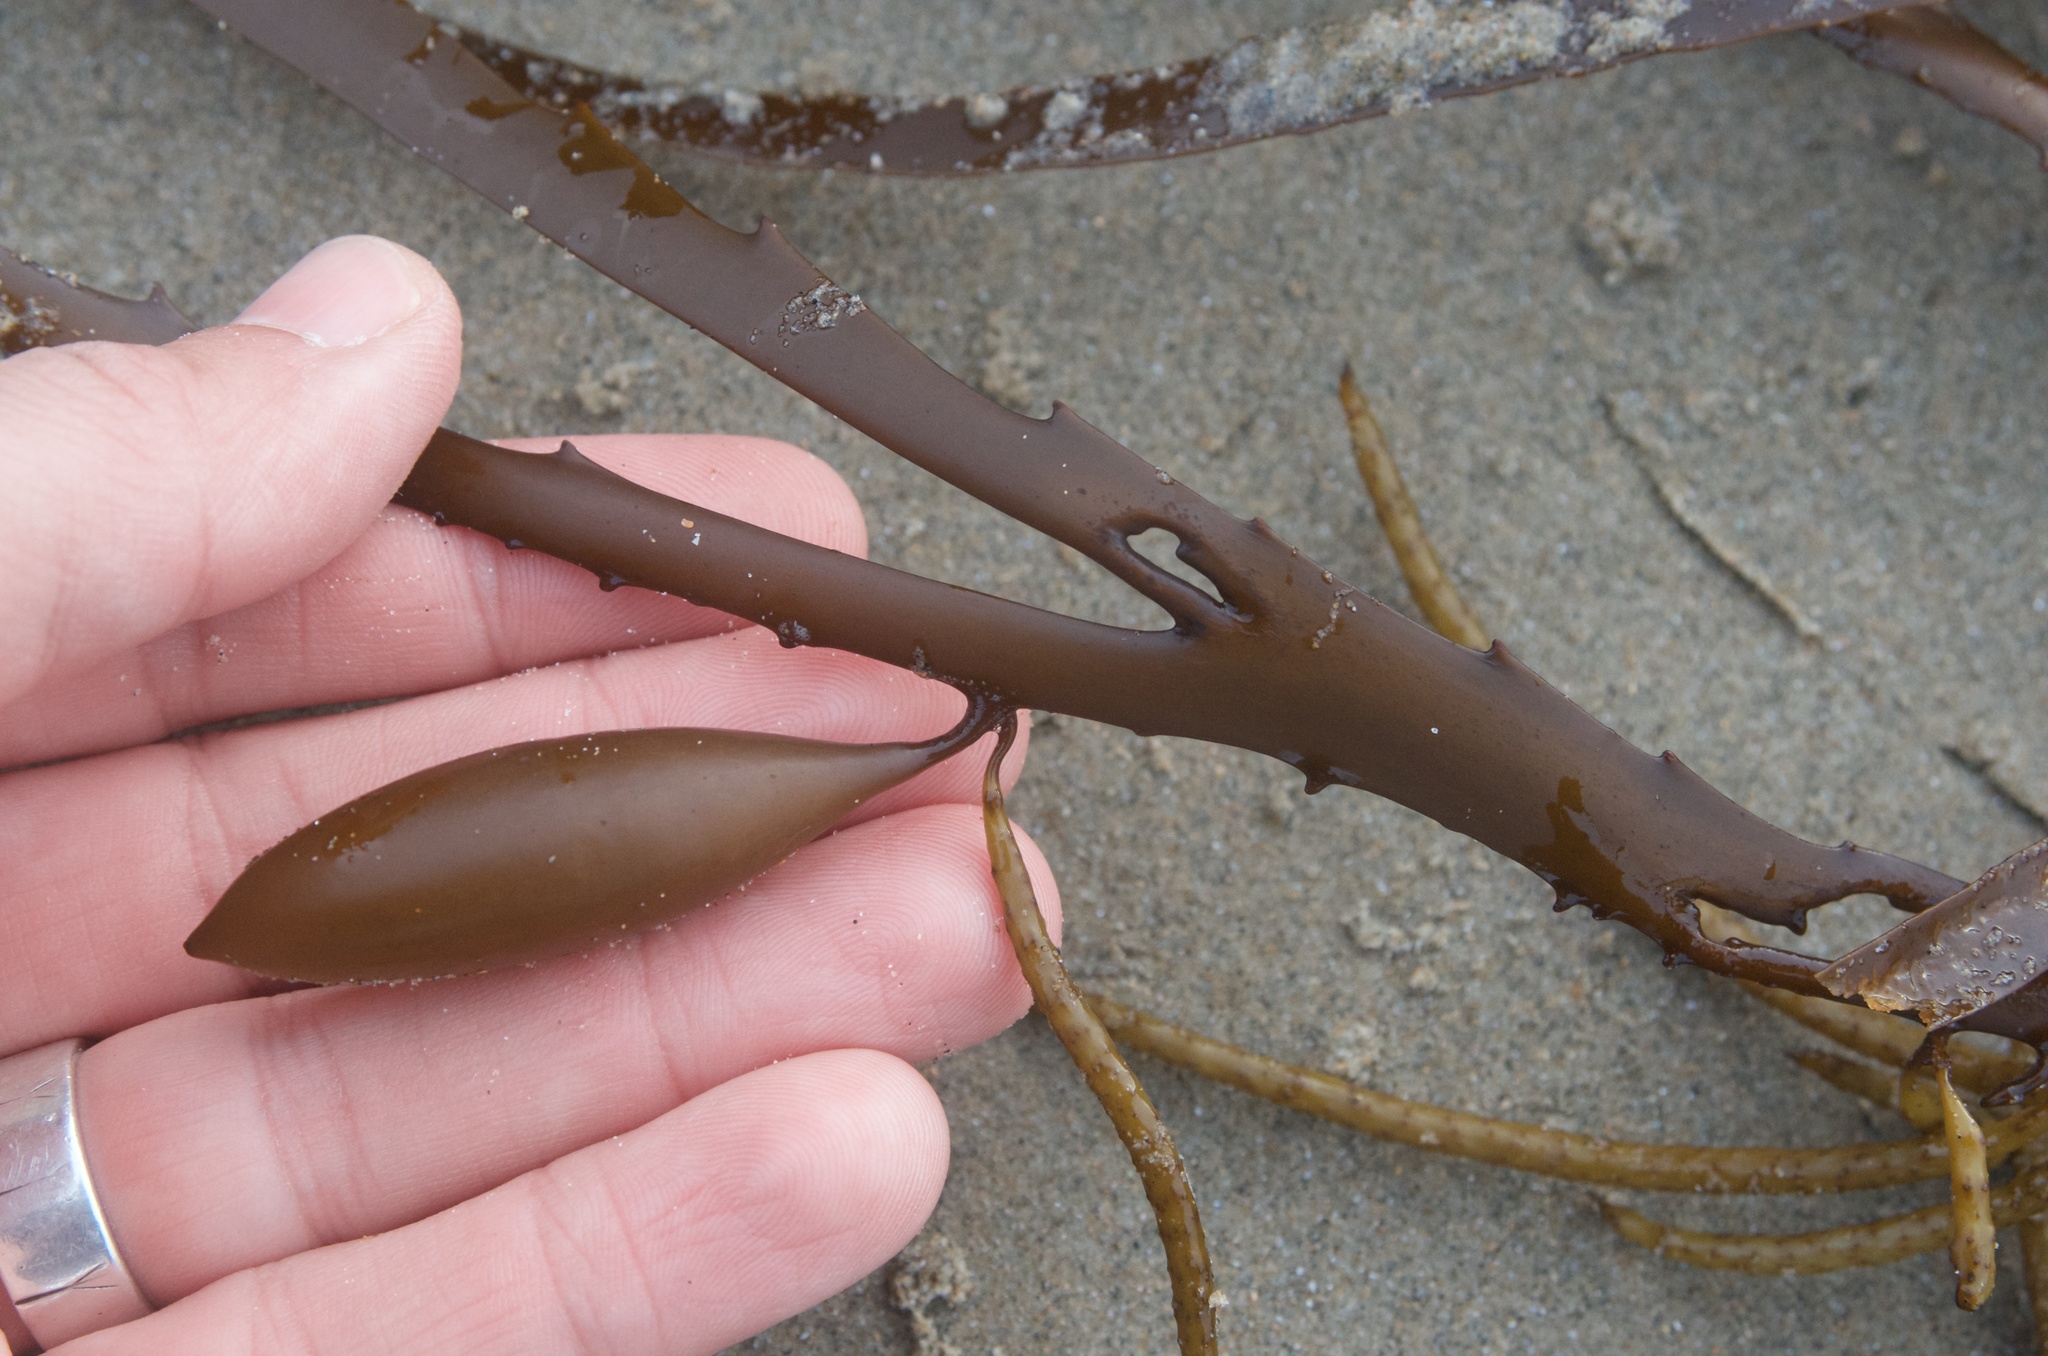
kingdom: Chromista
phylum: Ochrophyta
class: Phaeophyceae
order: Fucales
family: Seirococcaceae
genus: Marginariella
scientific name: Marginariella boryana
